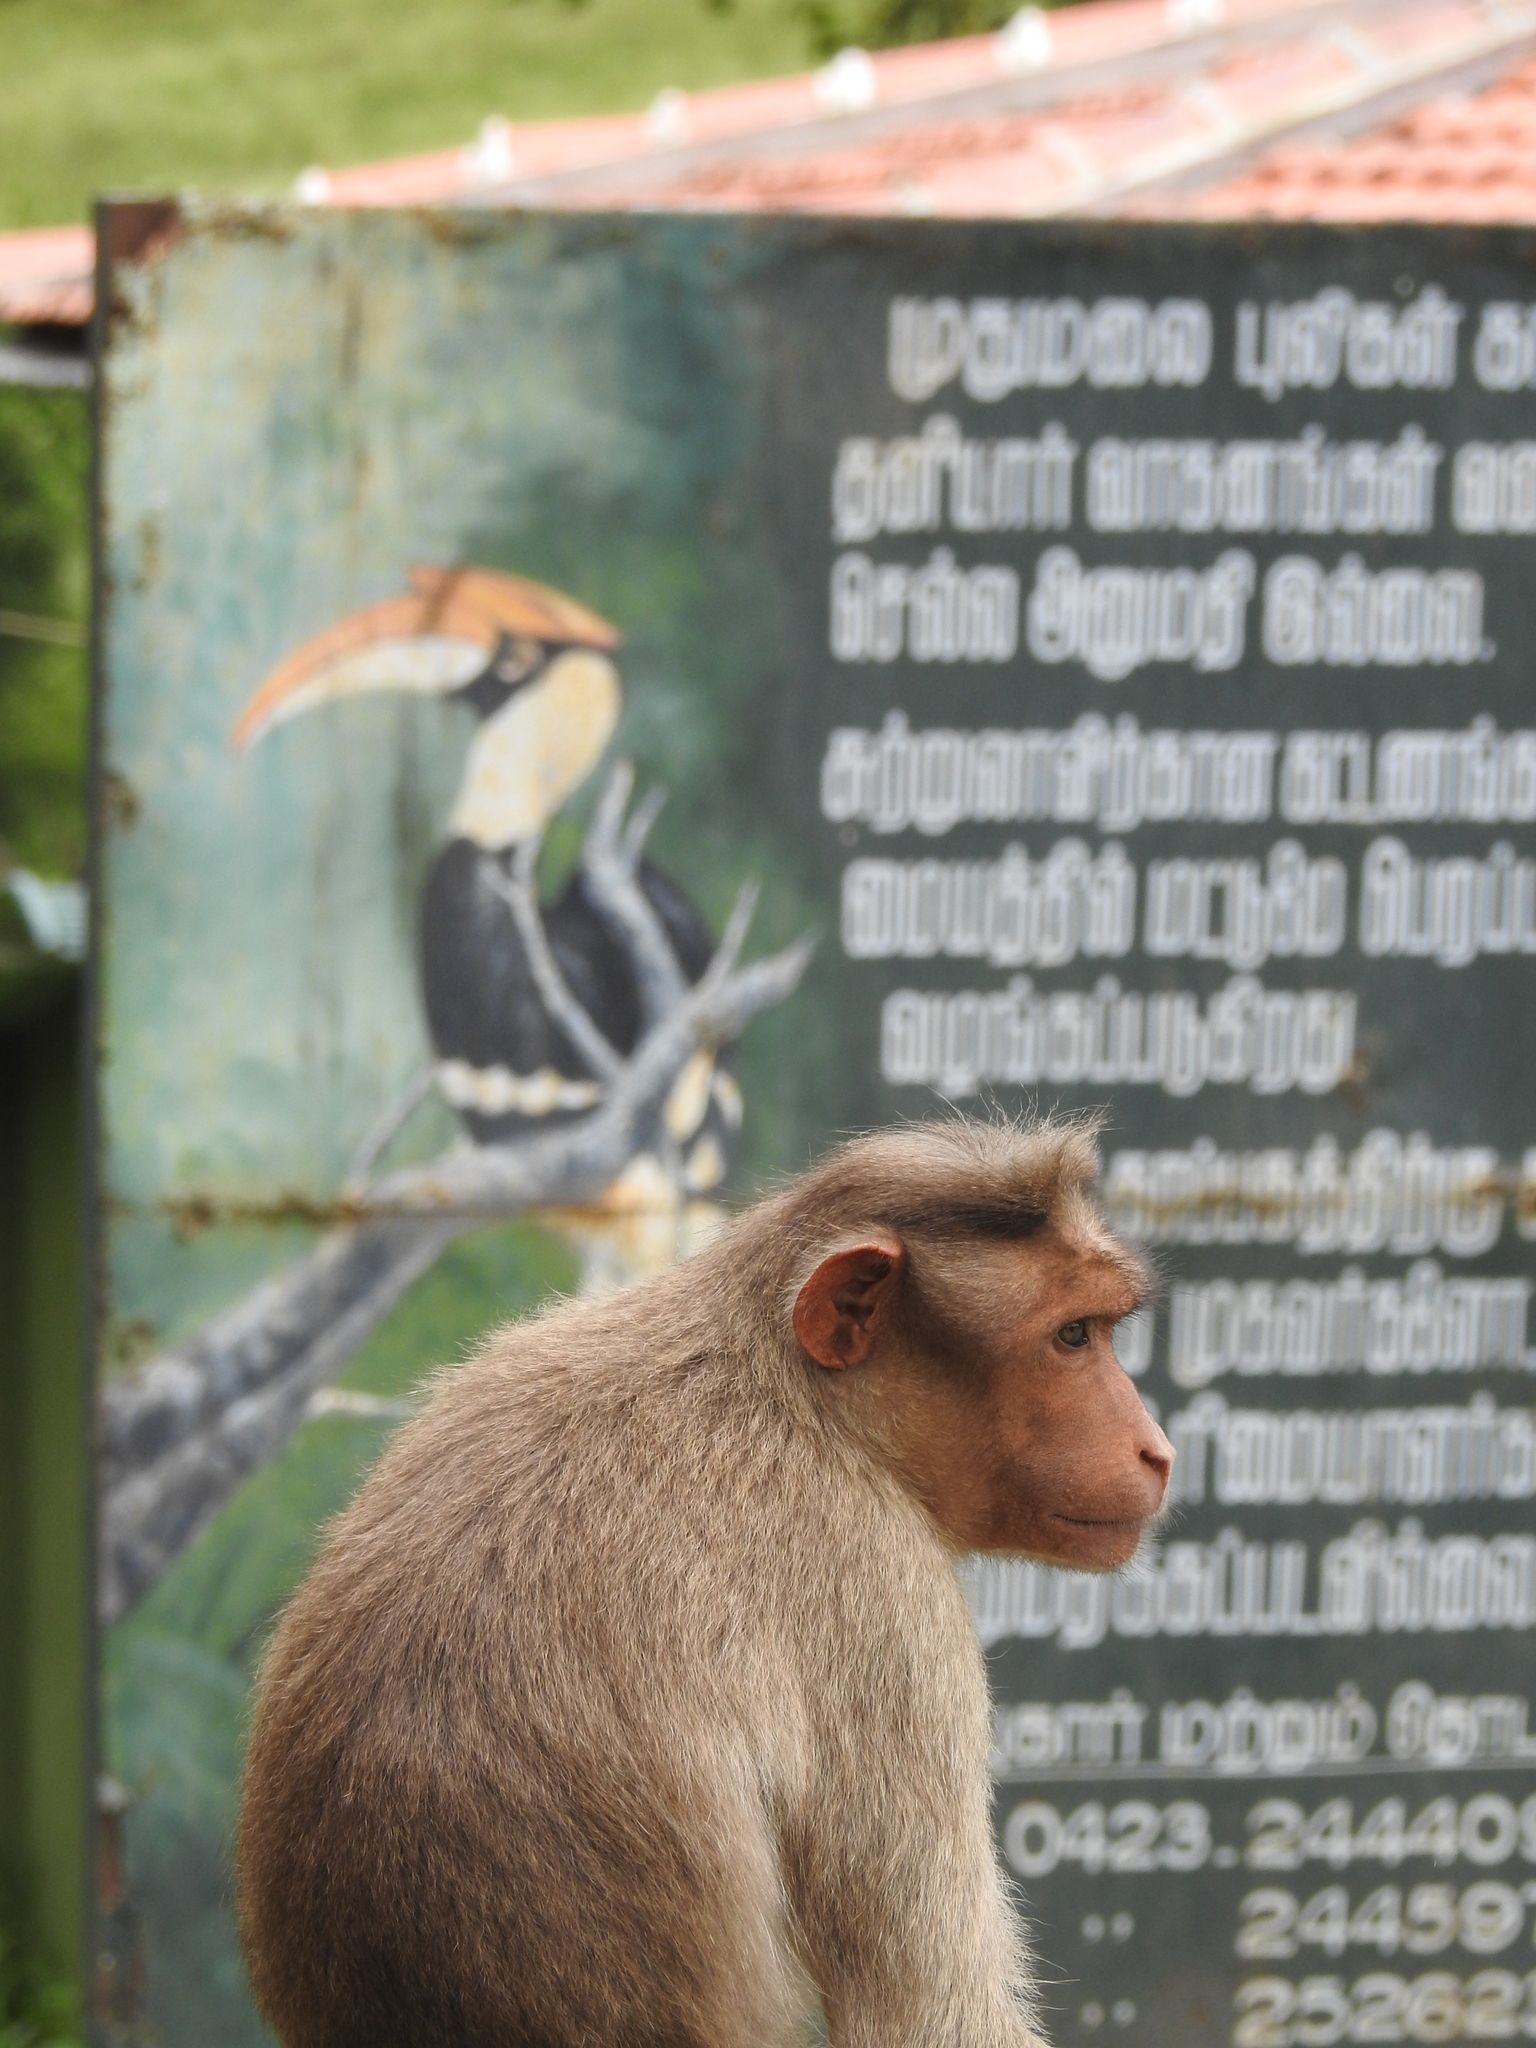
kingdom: Animalia
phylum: Chordata
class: Mammalia
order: Primates
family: Cercopithecidae
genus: Macaca
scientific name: Macaca radiata
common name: Bonnet macaque
